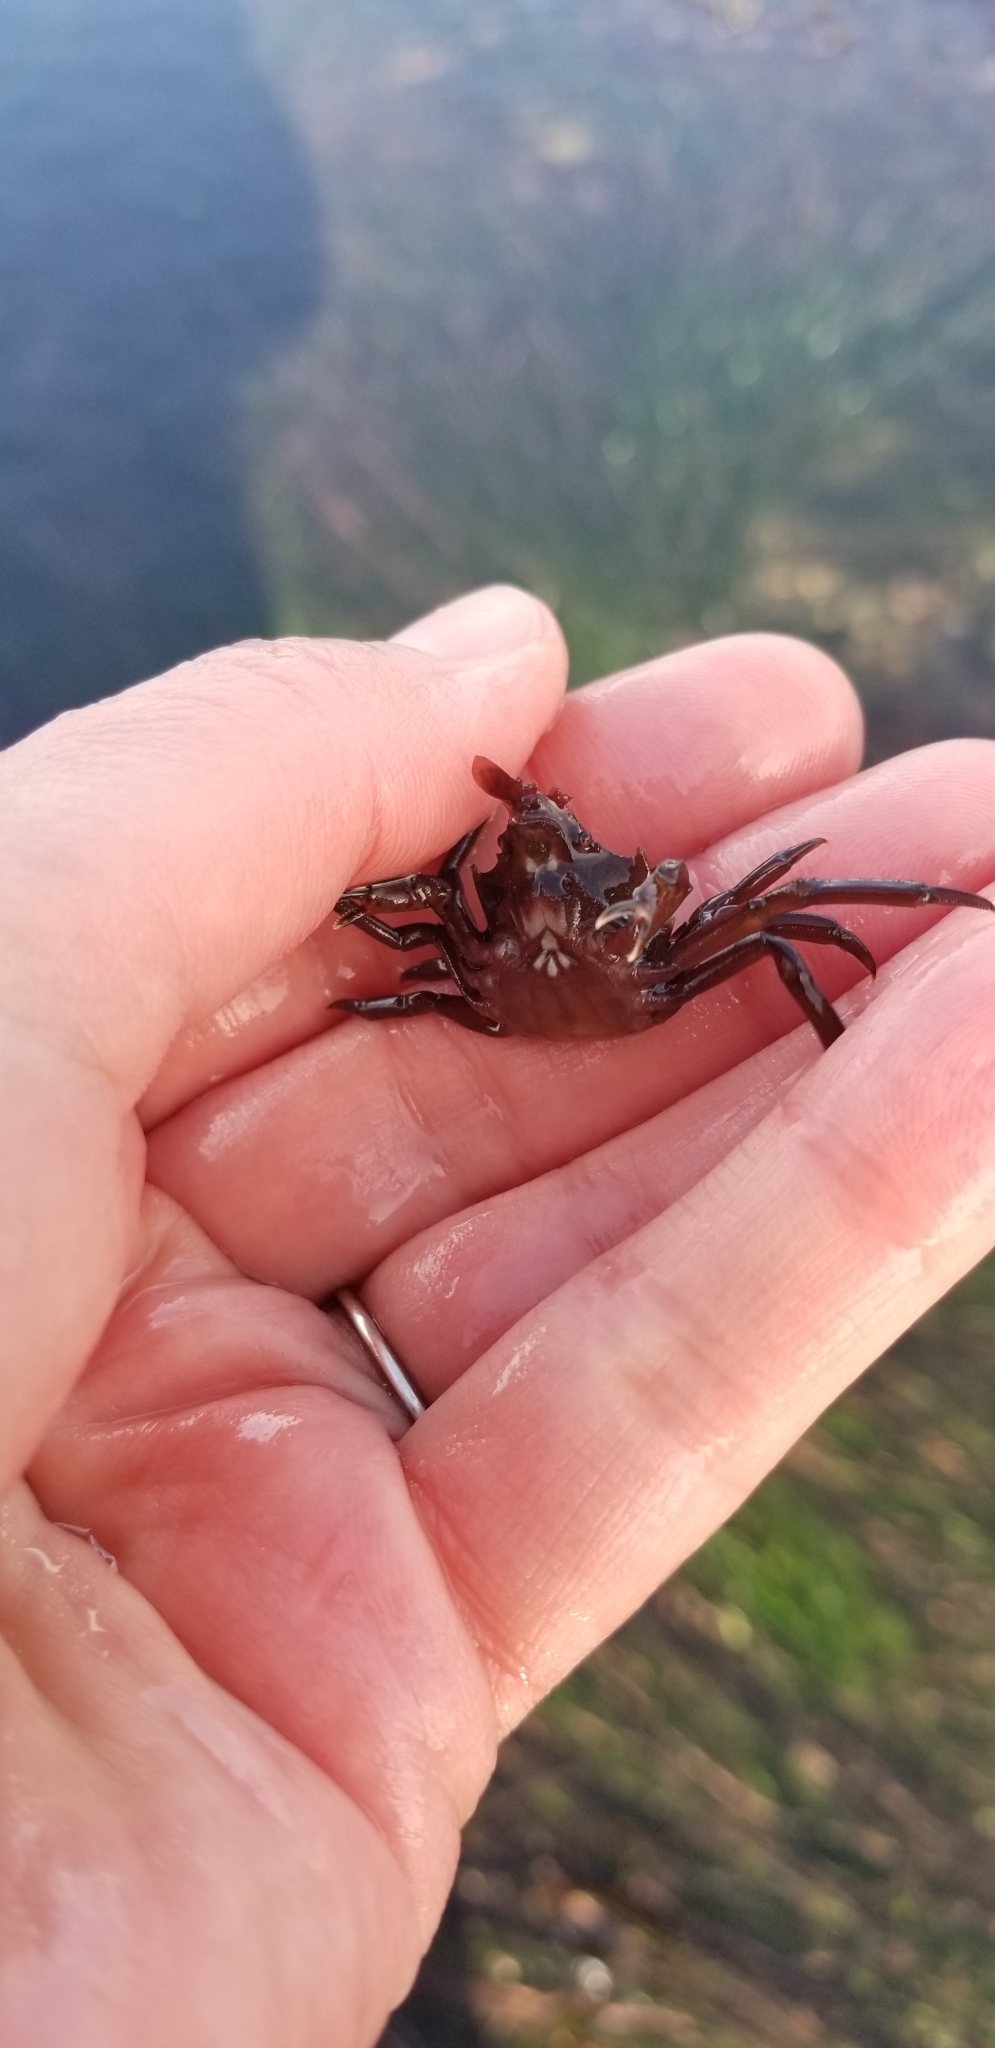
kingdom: Animalia
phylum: Arthropoda
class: Malacostraca
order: Decapoda
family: Epialtidae
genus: Pugettia
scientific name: Pugettia producta
